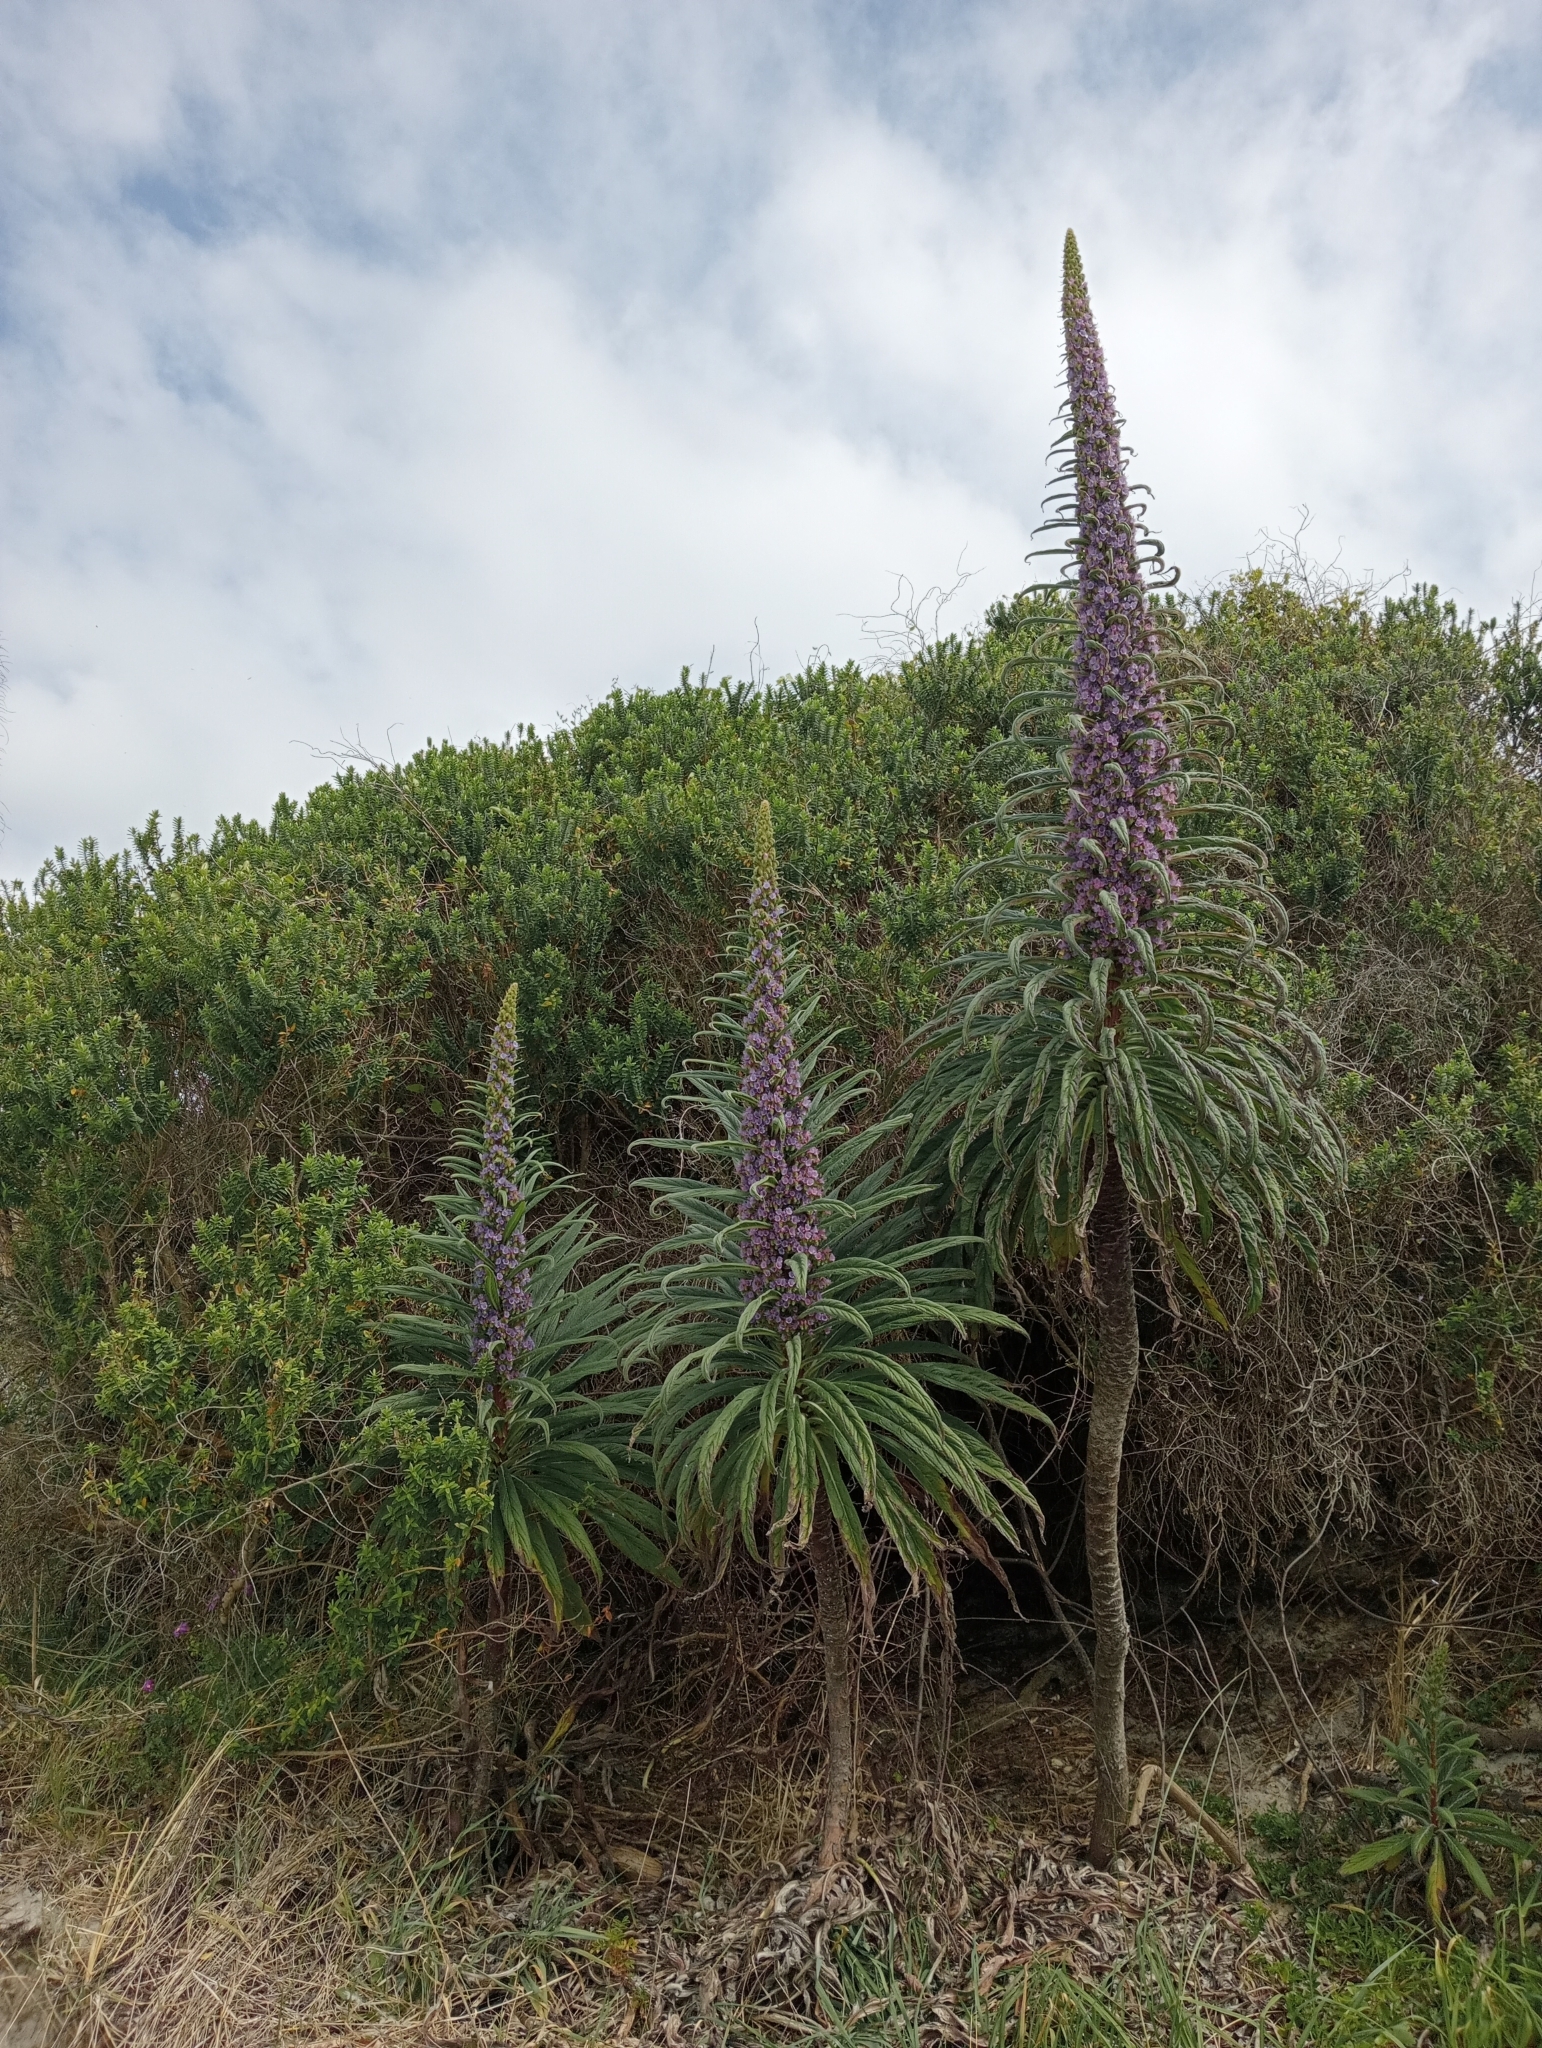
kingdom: Plantae
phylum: Tracheophyta
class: Magnoliopsida
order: Boraginales
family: Boraginaceae
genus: Echium
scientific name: Echium pininana
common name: Giant viper's-bugloss
